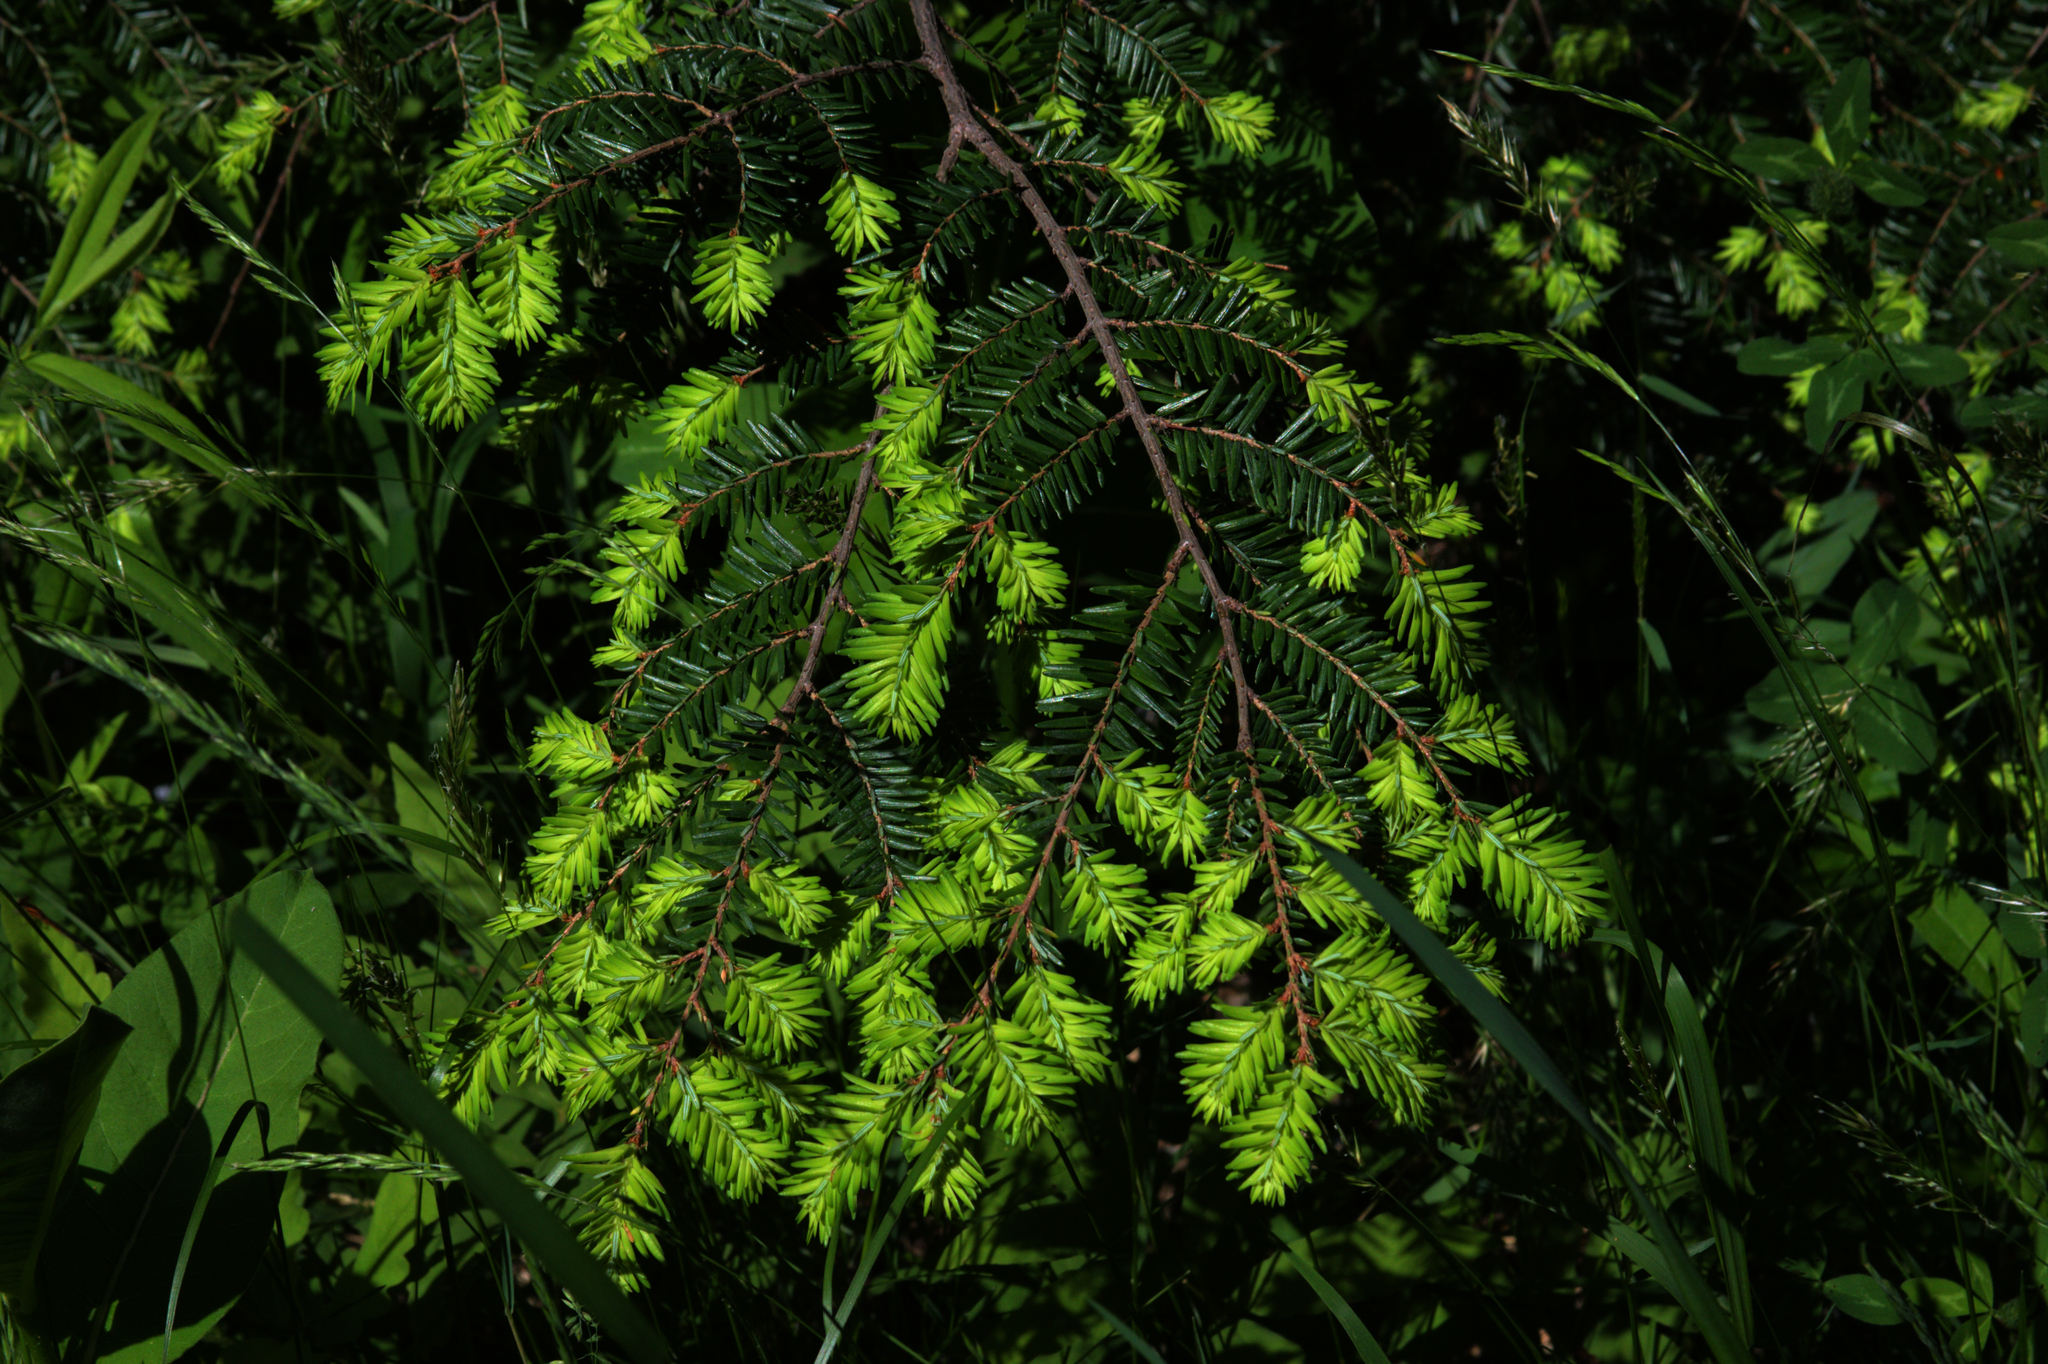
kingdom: Plantae
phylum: Tracheophyta
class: Pinopsida
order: Pinales
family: Pinaceae
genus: Tsuga
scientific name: Tsuga canadensis
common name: Eastern hemlock
